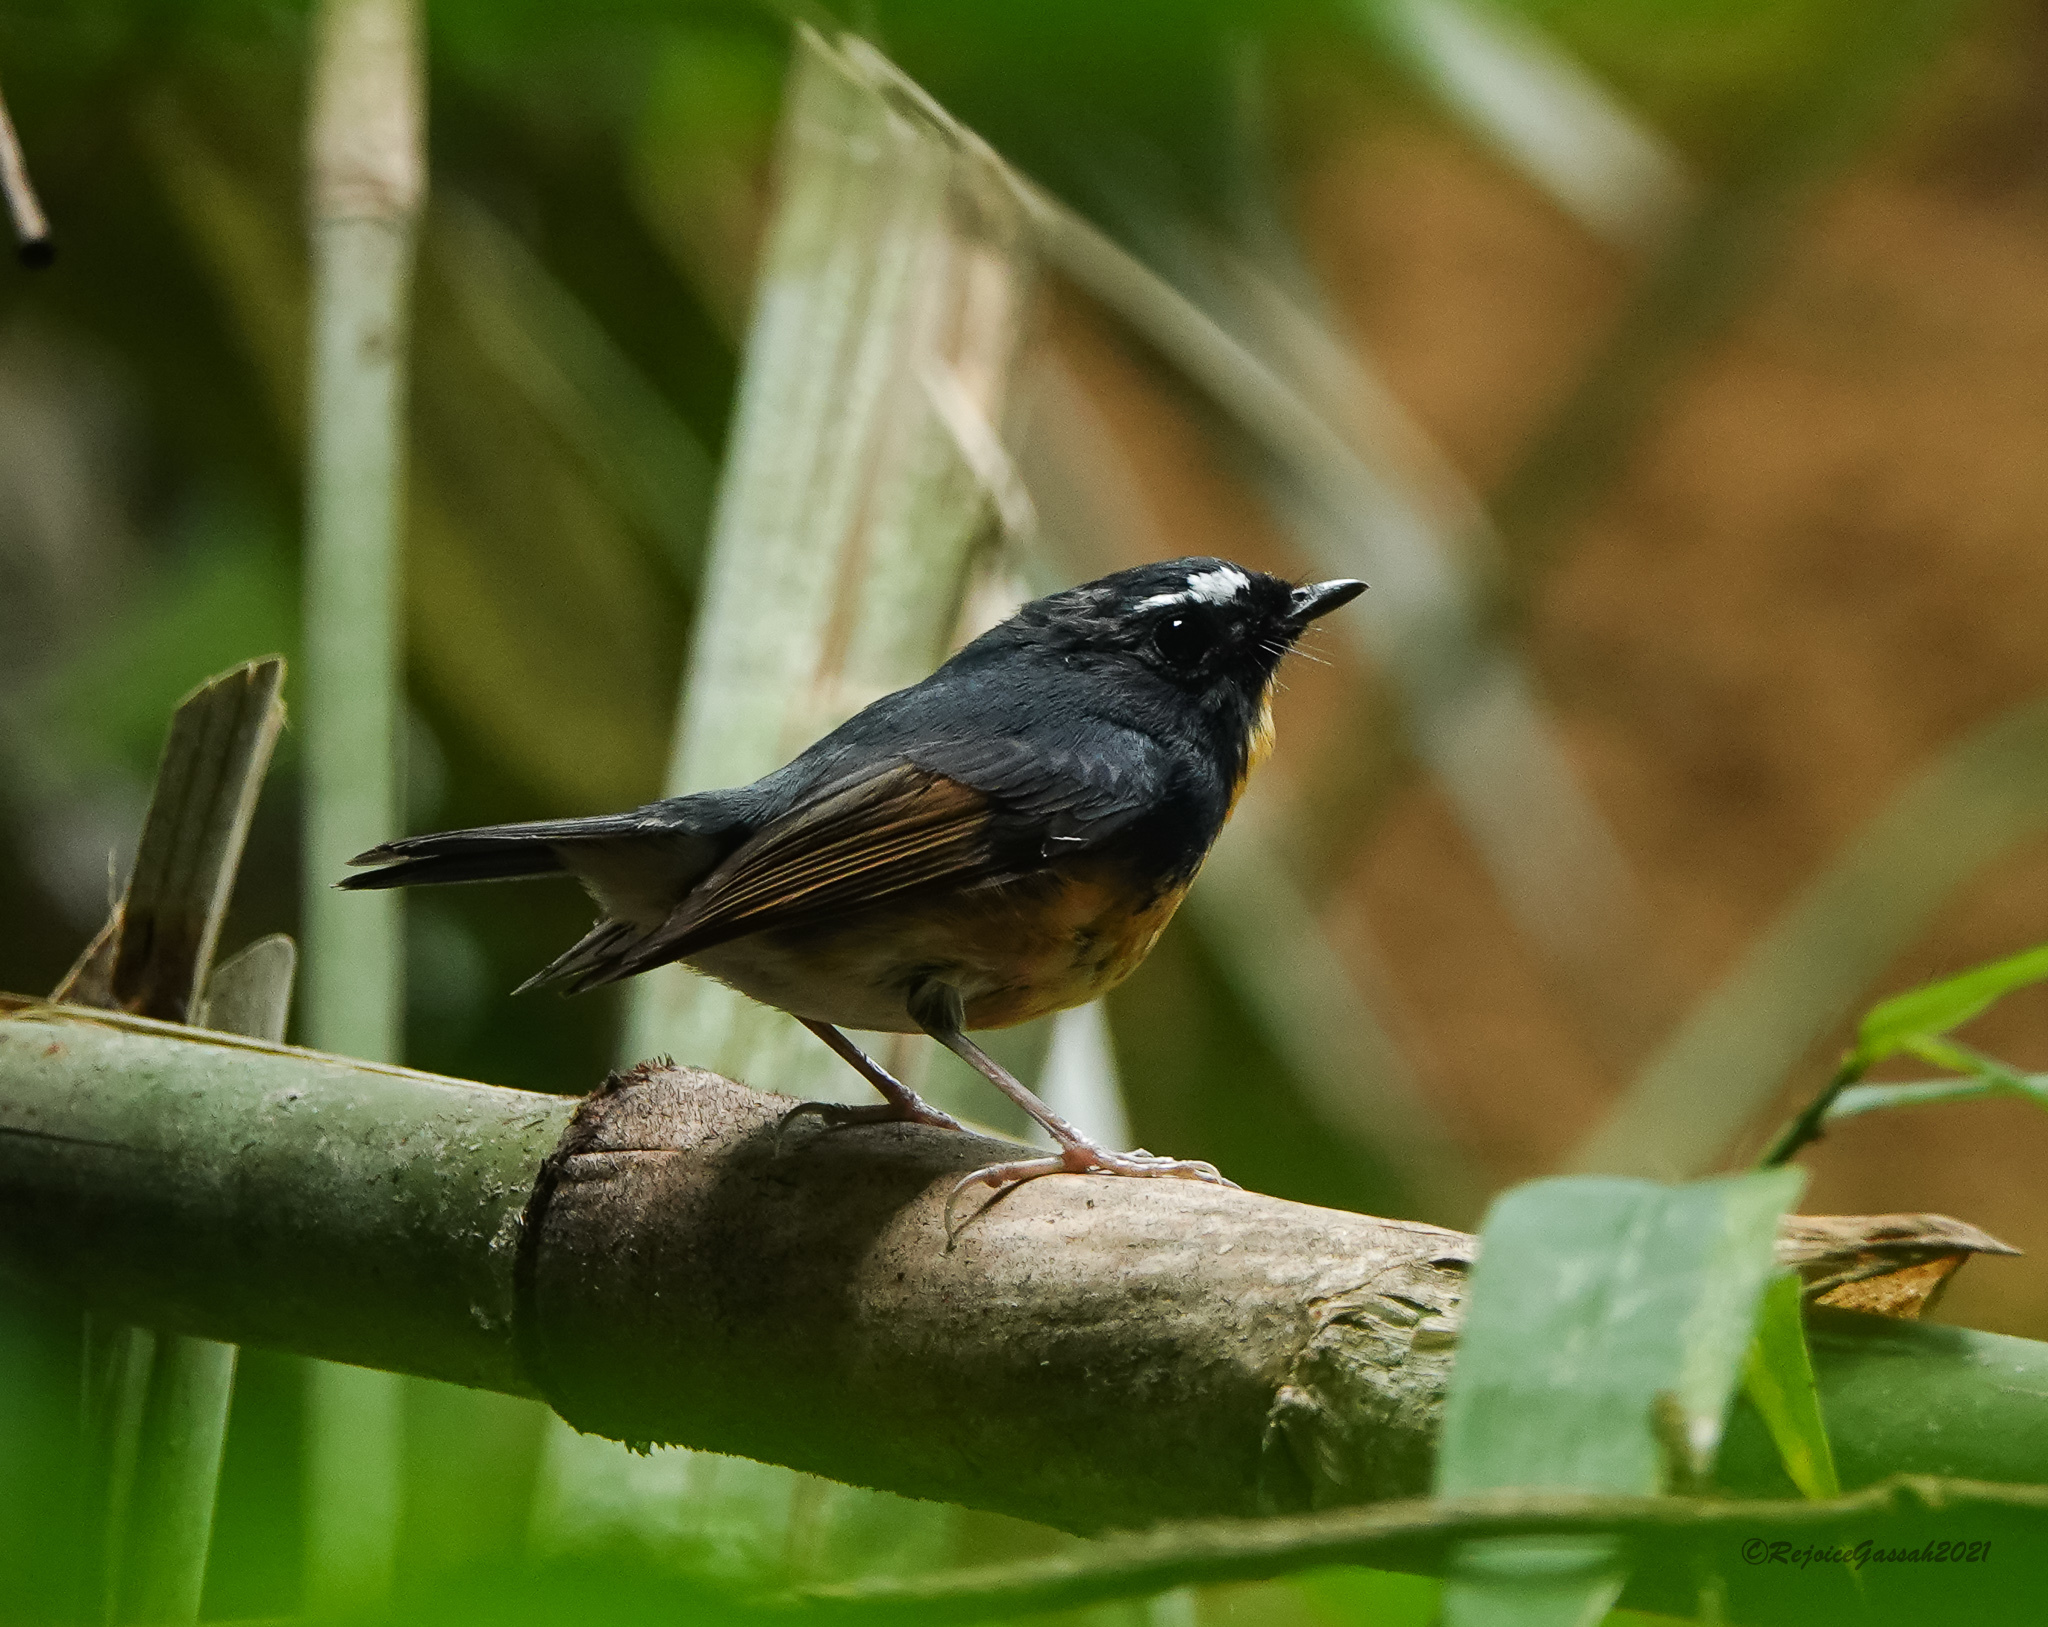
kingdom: Animalia
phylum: Chordata
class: Aves
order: Passeriformes
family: Muscicapidae
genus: Ficedula
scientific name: Ficedula hyperythra
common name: Snowy-browed flycatcher
